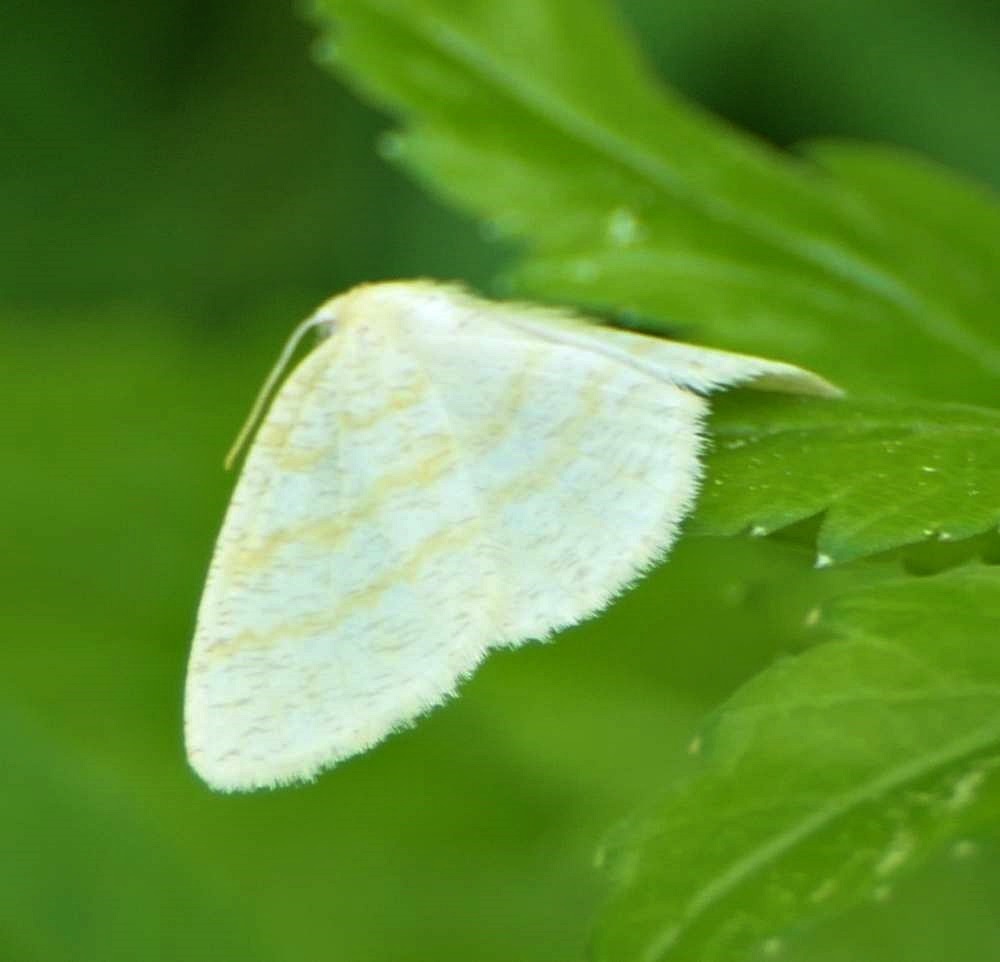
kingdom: Animalia
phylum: Arthropoda
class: Insecta
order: Lepidoptera
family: Geometridae
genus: Cabera
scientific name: Cabera erythemaria
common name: Yellow-dusted cream moth
